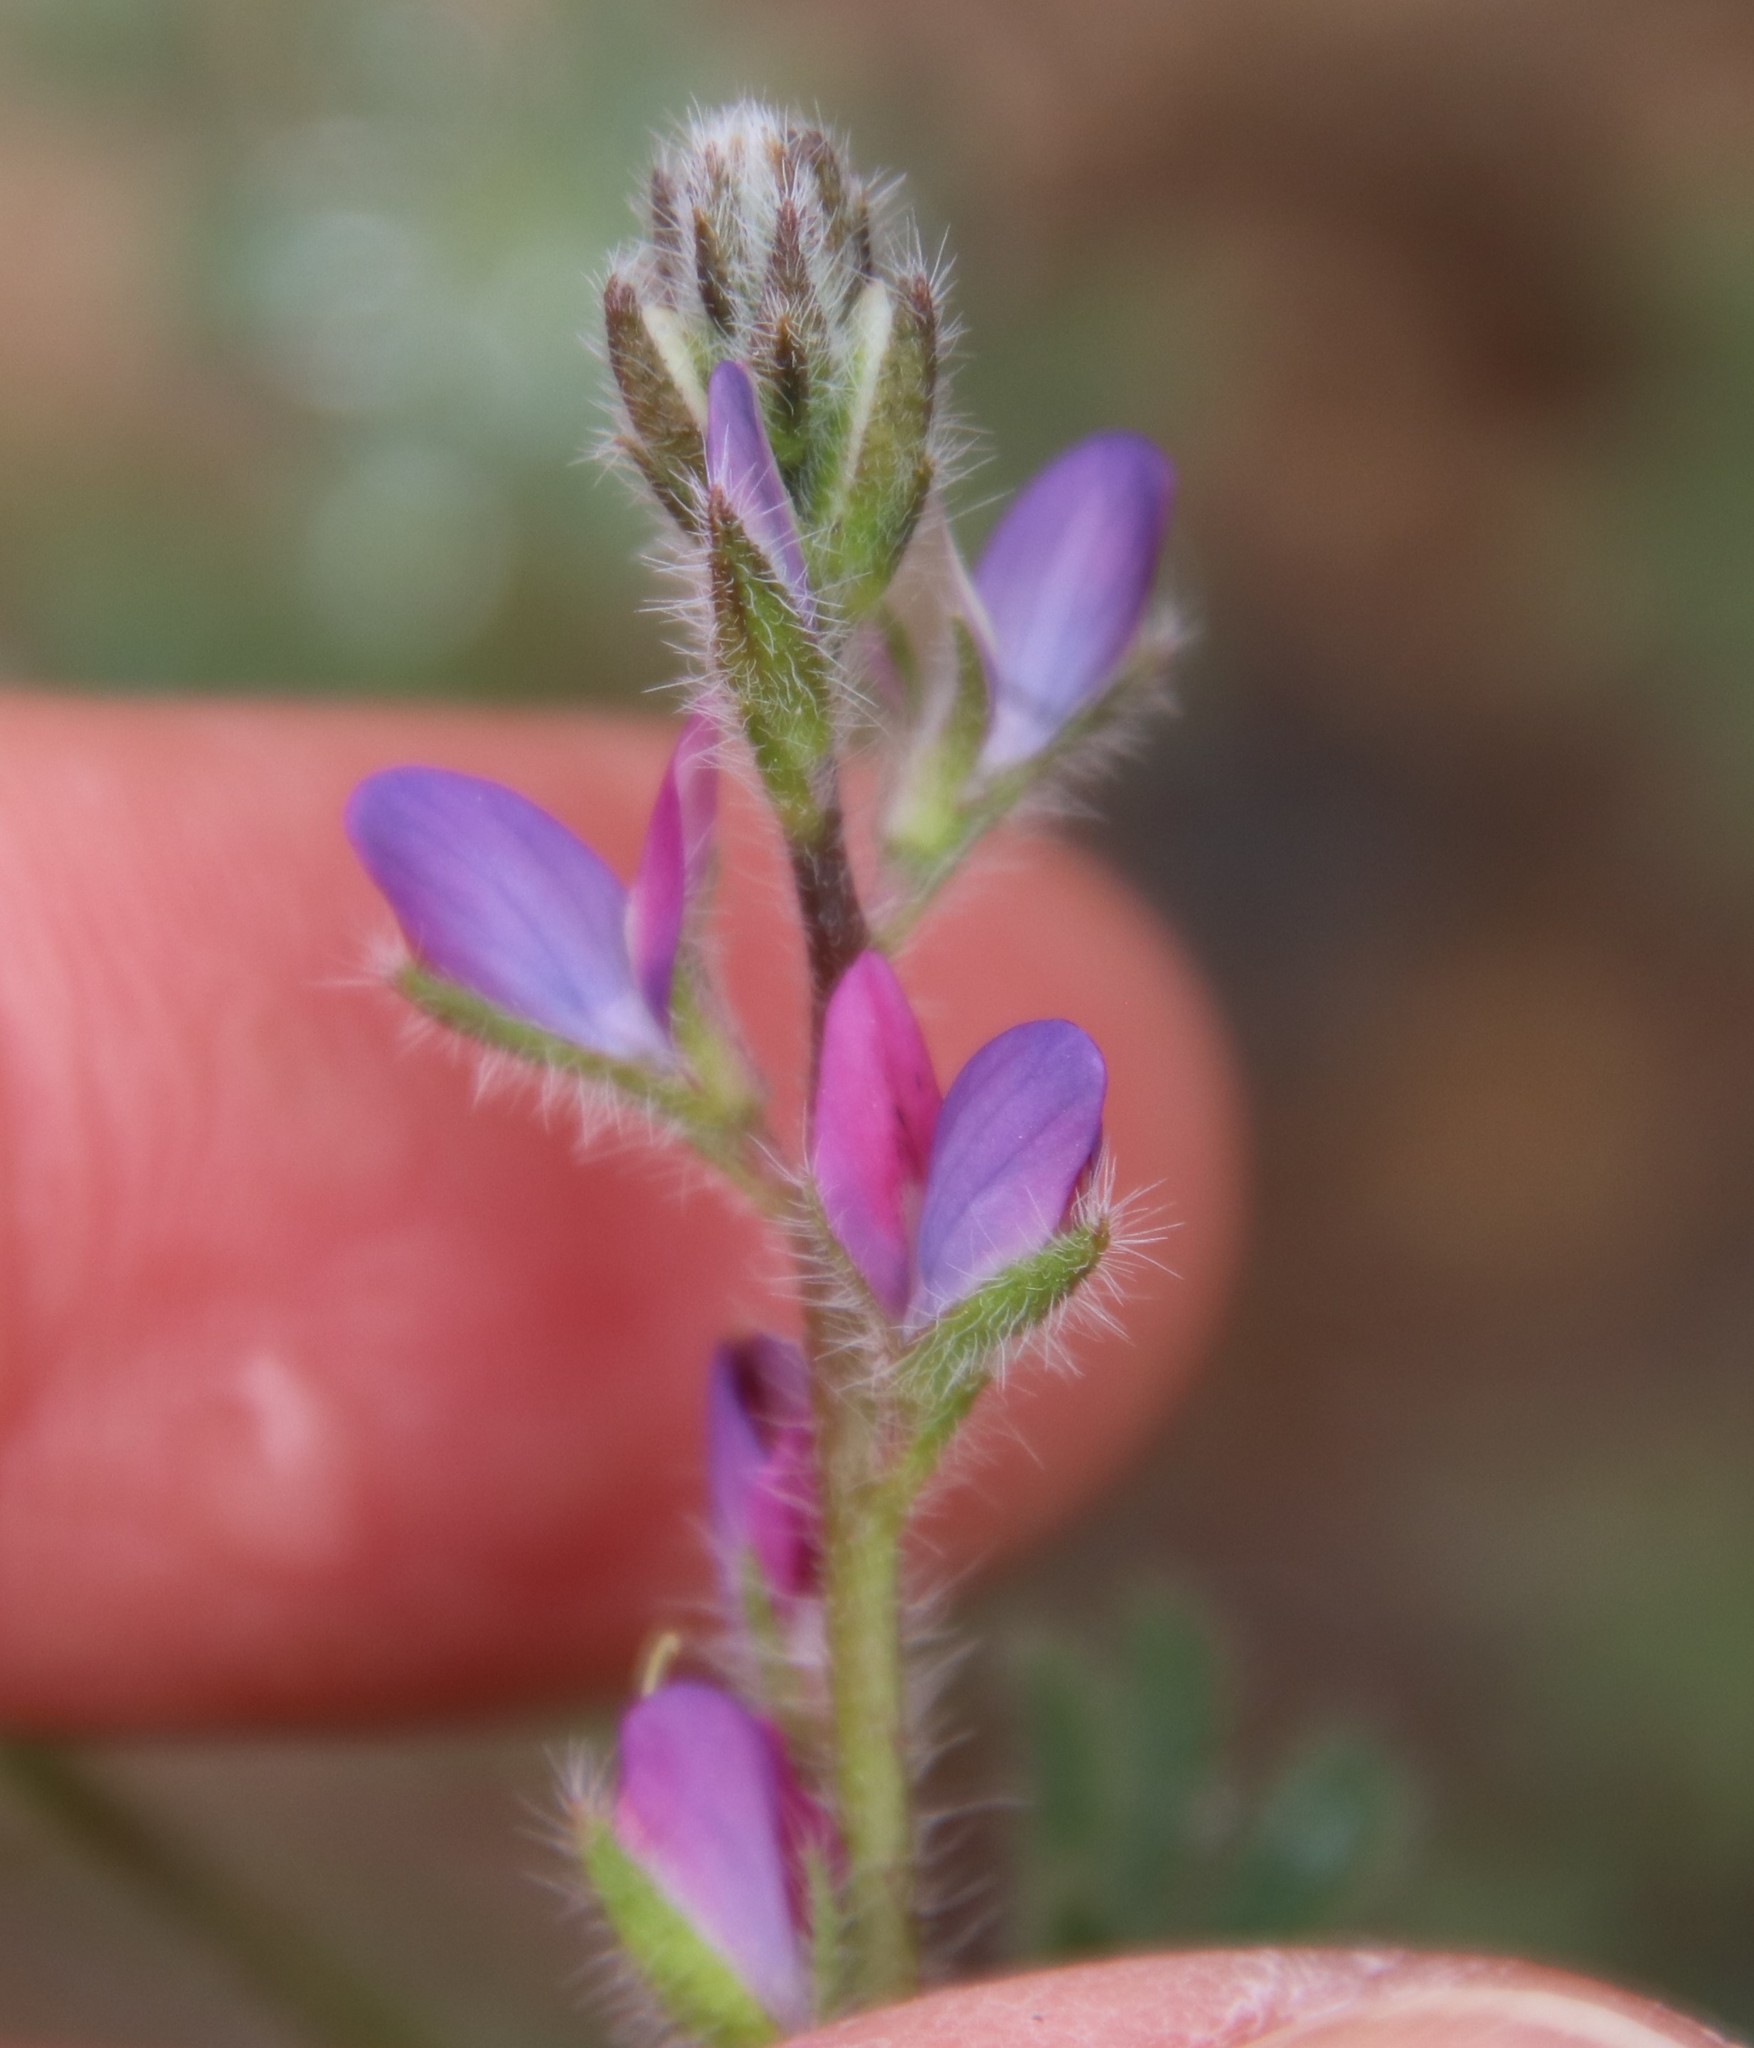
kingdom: Plantae
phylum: Tracheophyta
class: Magnoliopsida
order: Fabales
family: Fabaceae
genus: Lupinus
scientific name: Lupinus concinnus
